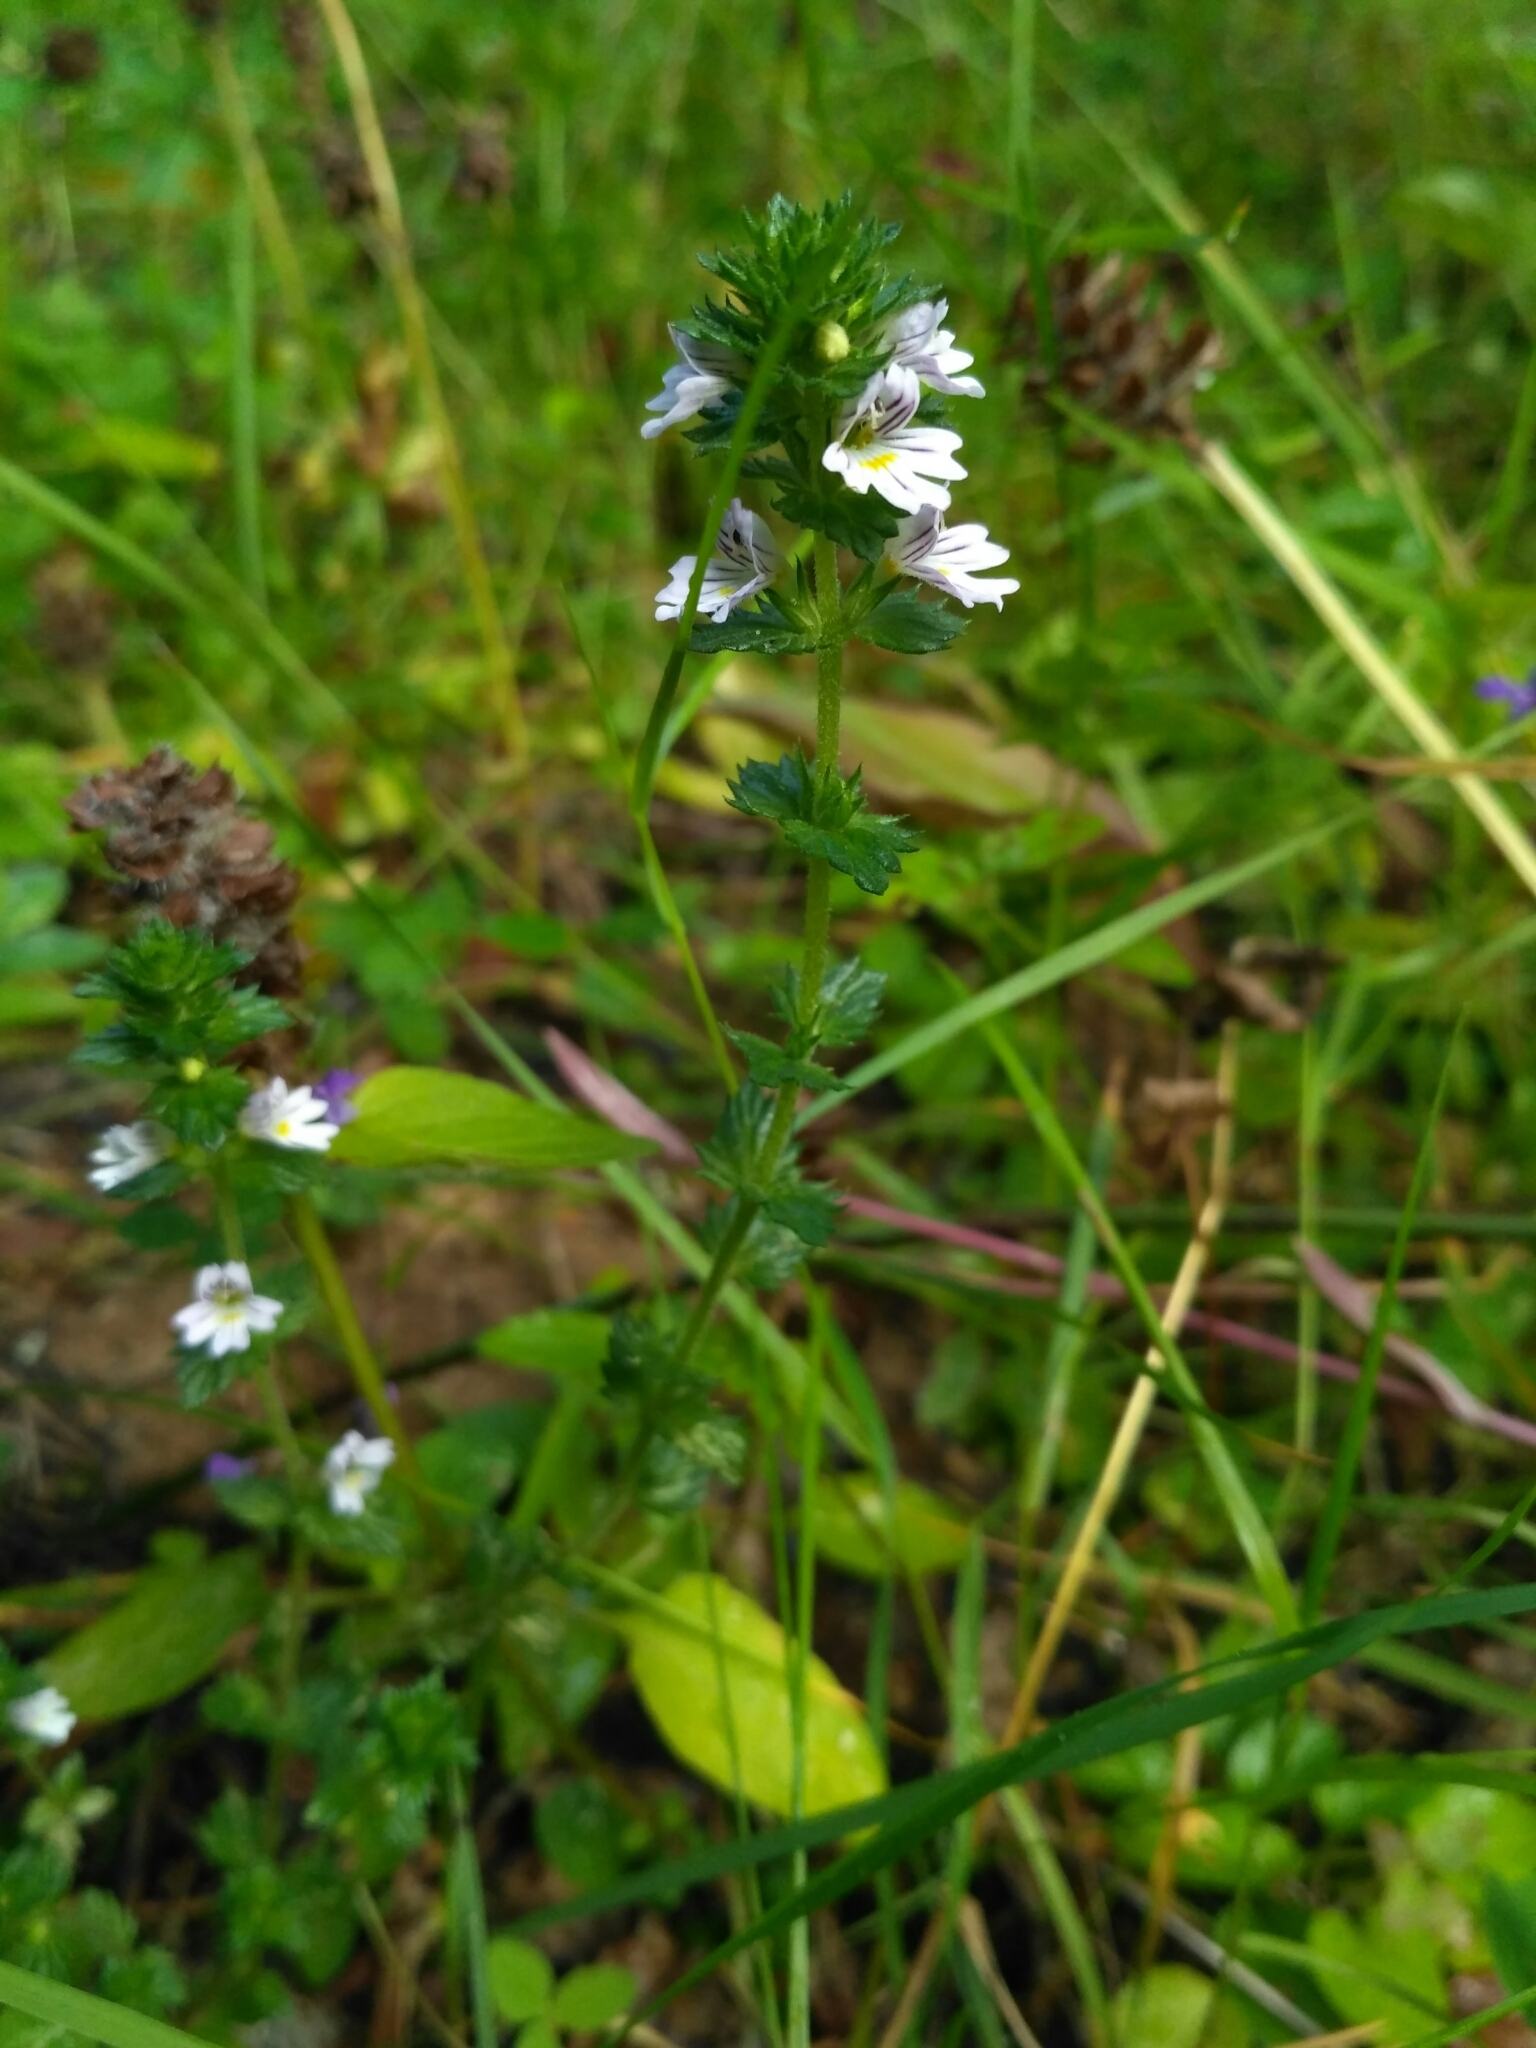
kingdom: Plantae
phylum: Tracheophyta
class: Magnoliopsida
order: Lamiales
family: Orobanchaceae
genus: Euphrasia
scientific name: Euphrasia
